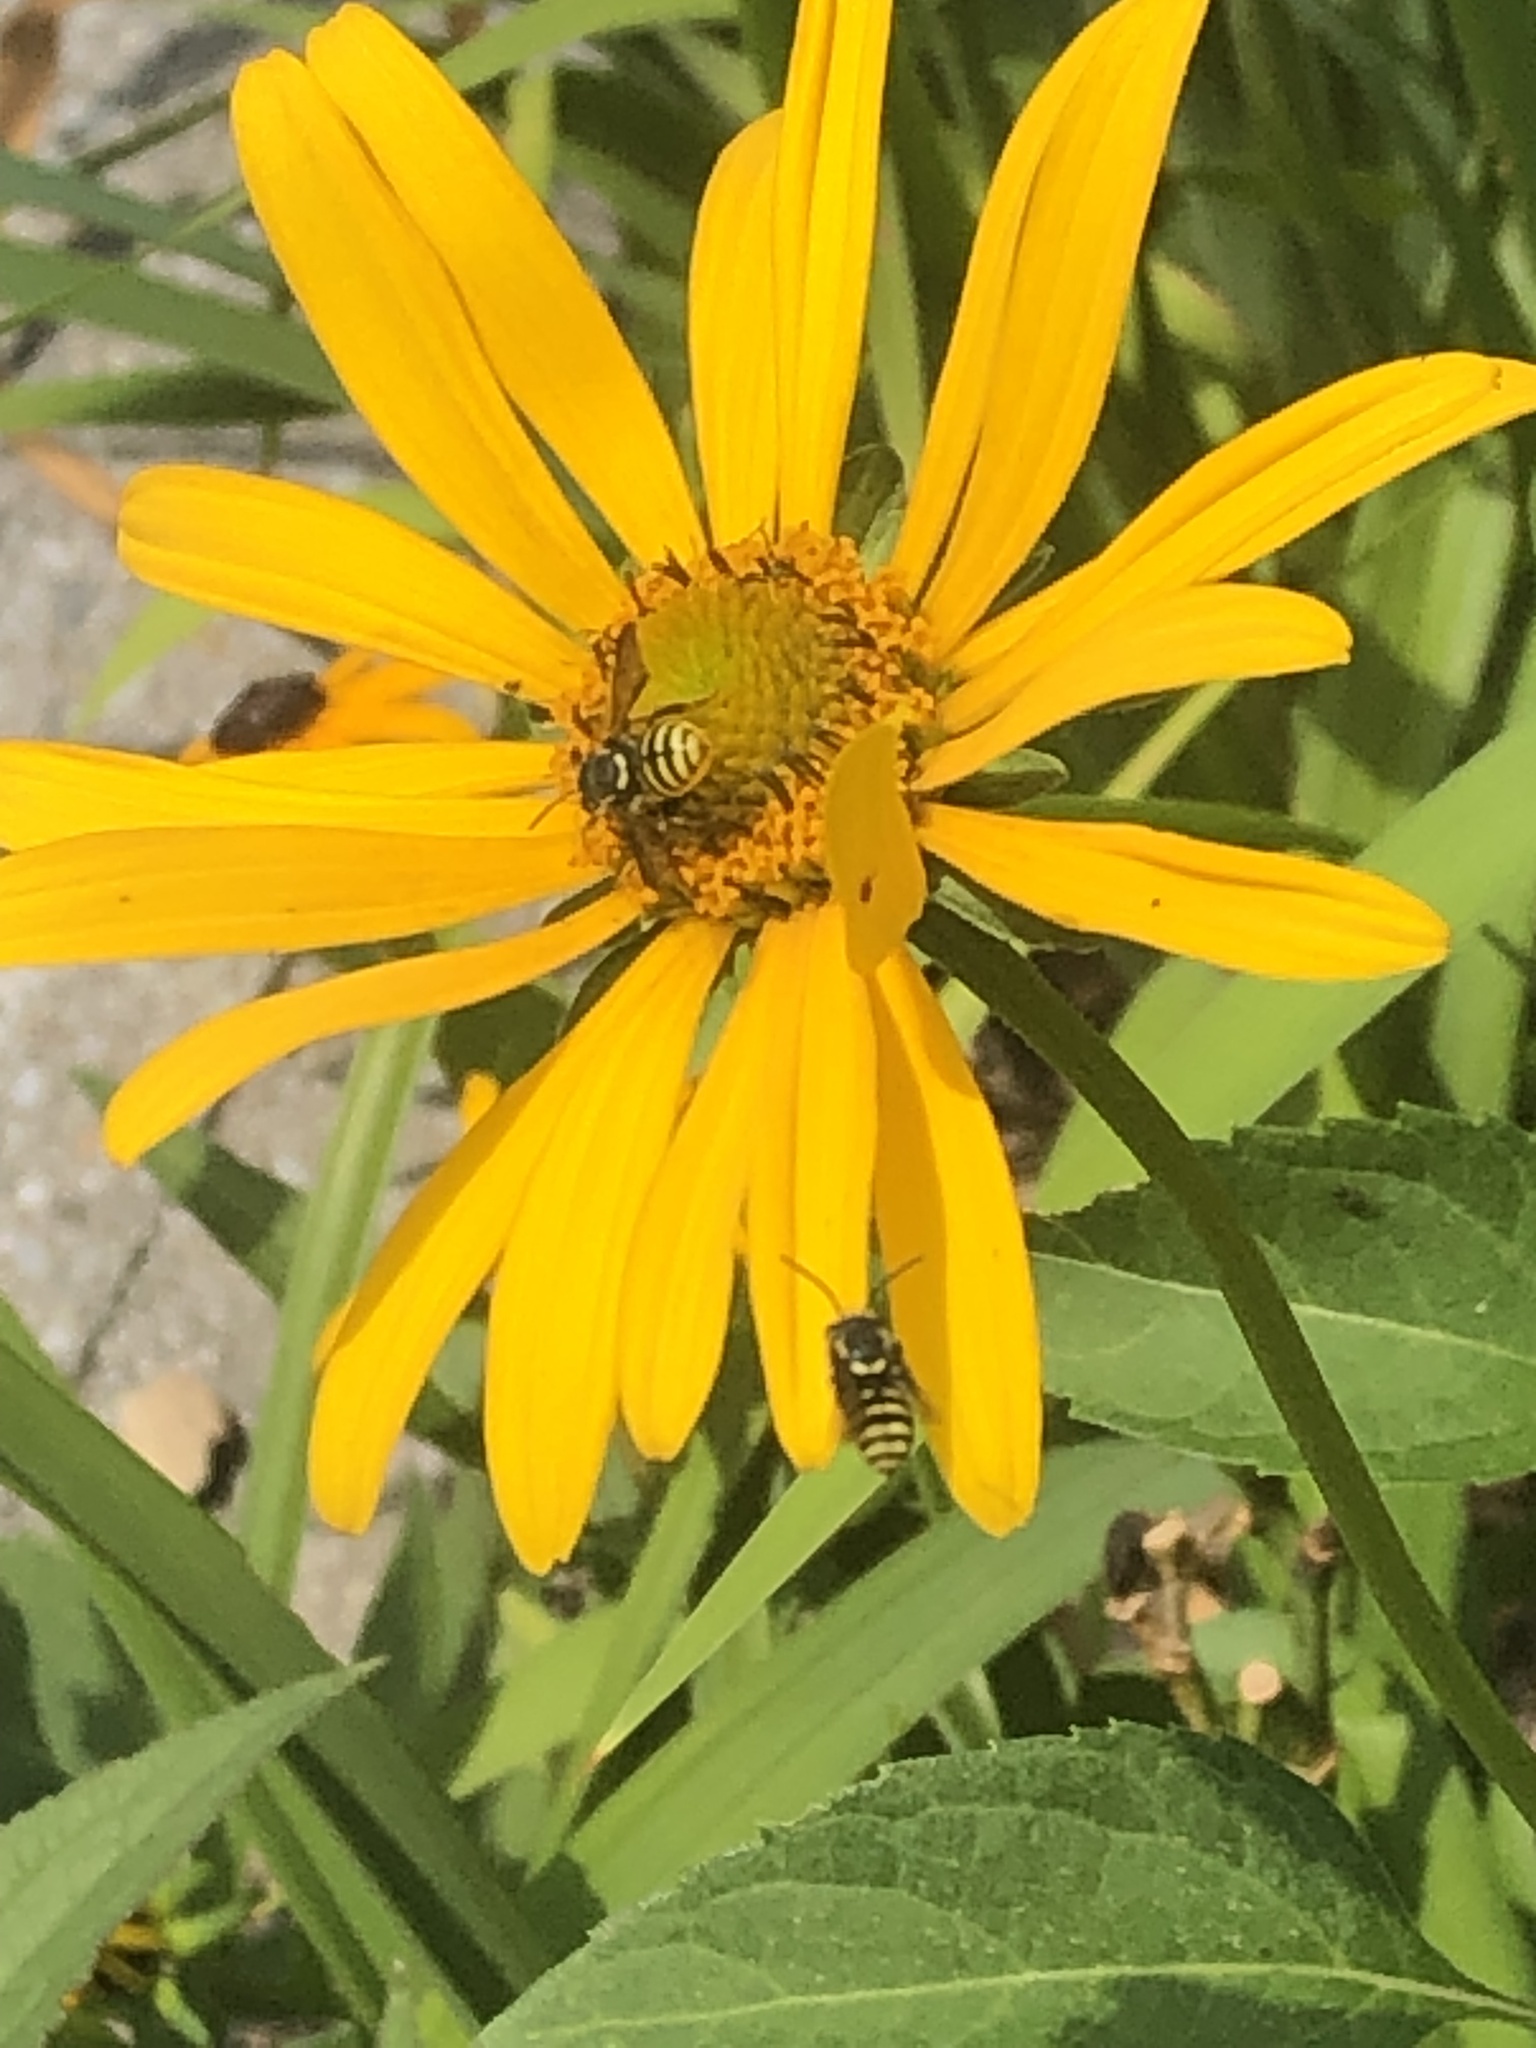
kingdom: Animalia
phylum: Arthropoda
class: Insecta
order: Hymenoptera
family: Megachilidae
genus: Paranthidium
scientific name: Paranthidium jugatorium
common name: Sunflower burrowing-resin bee
